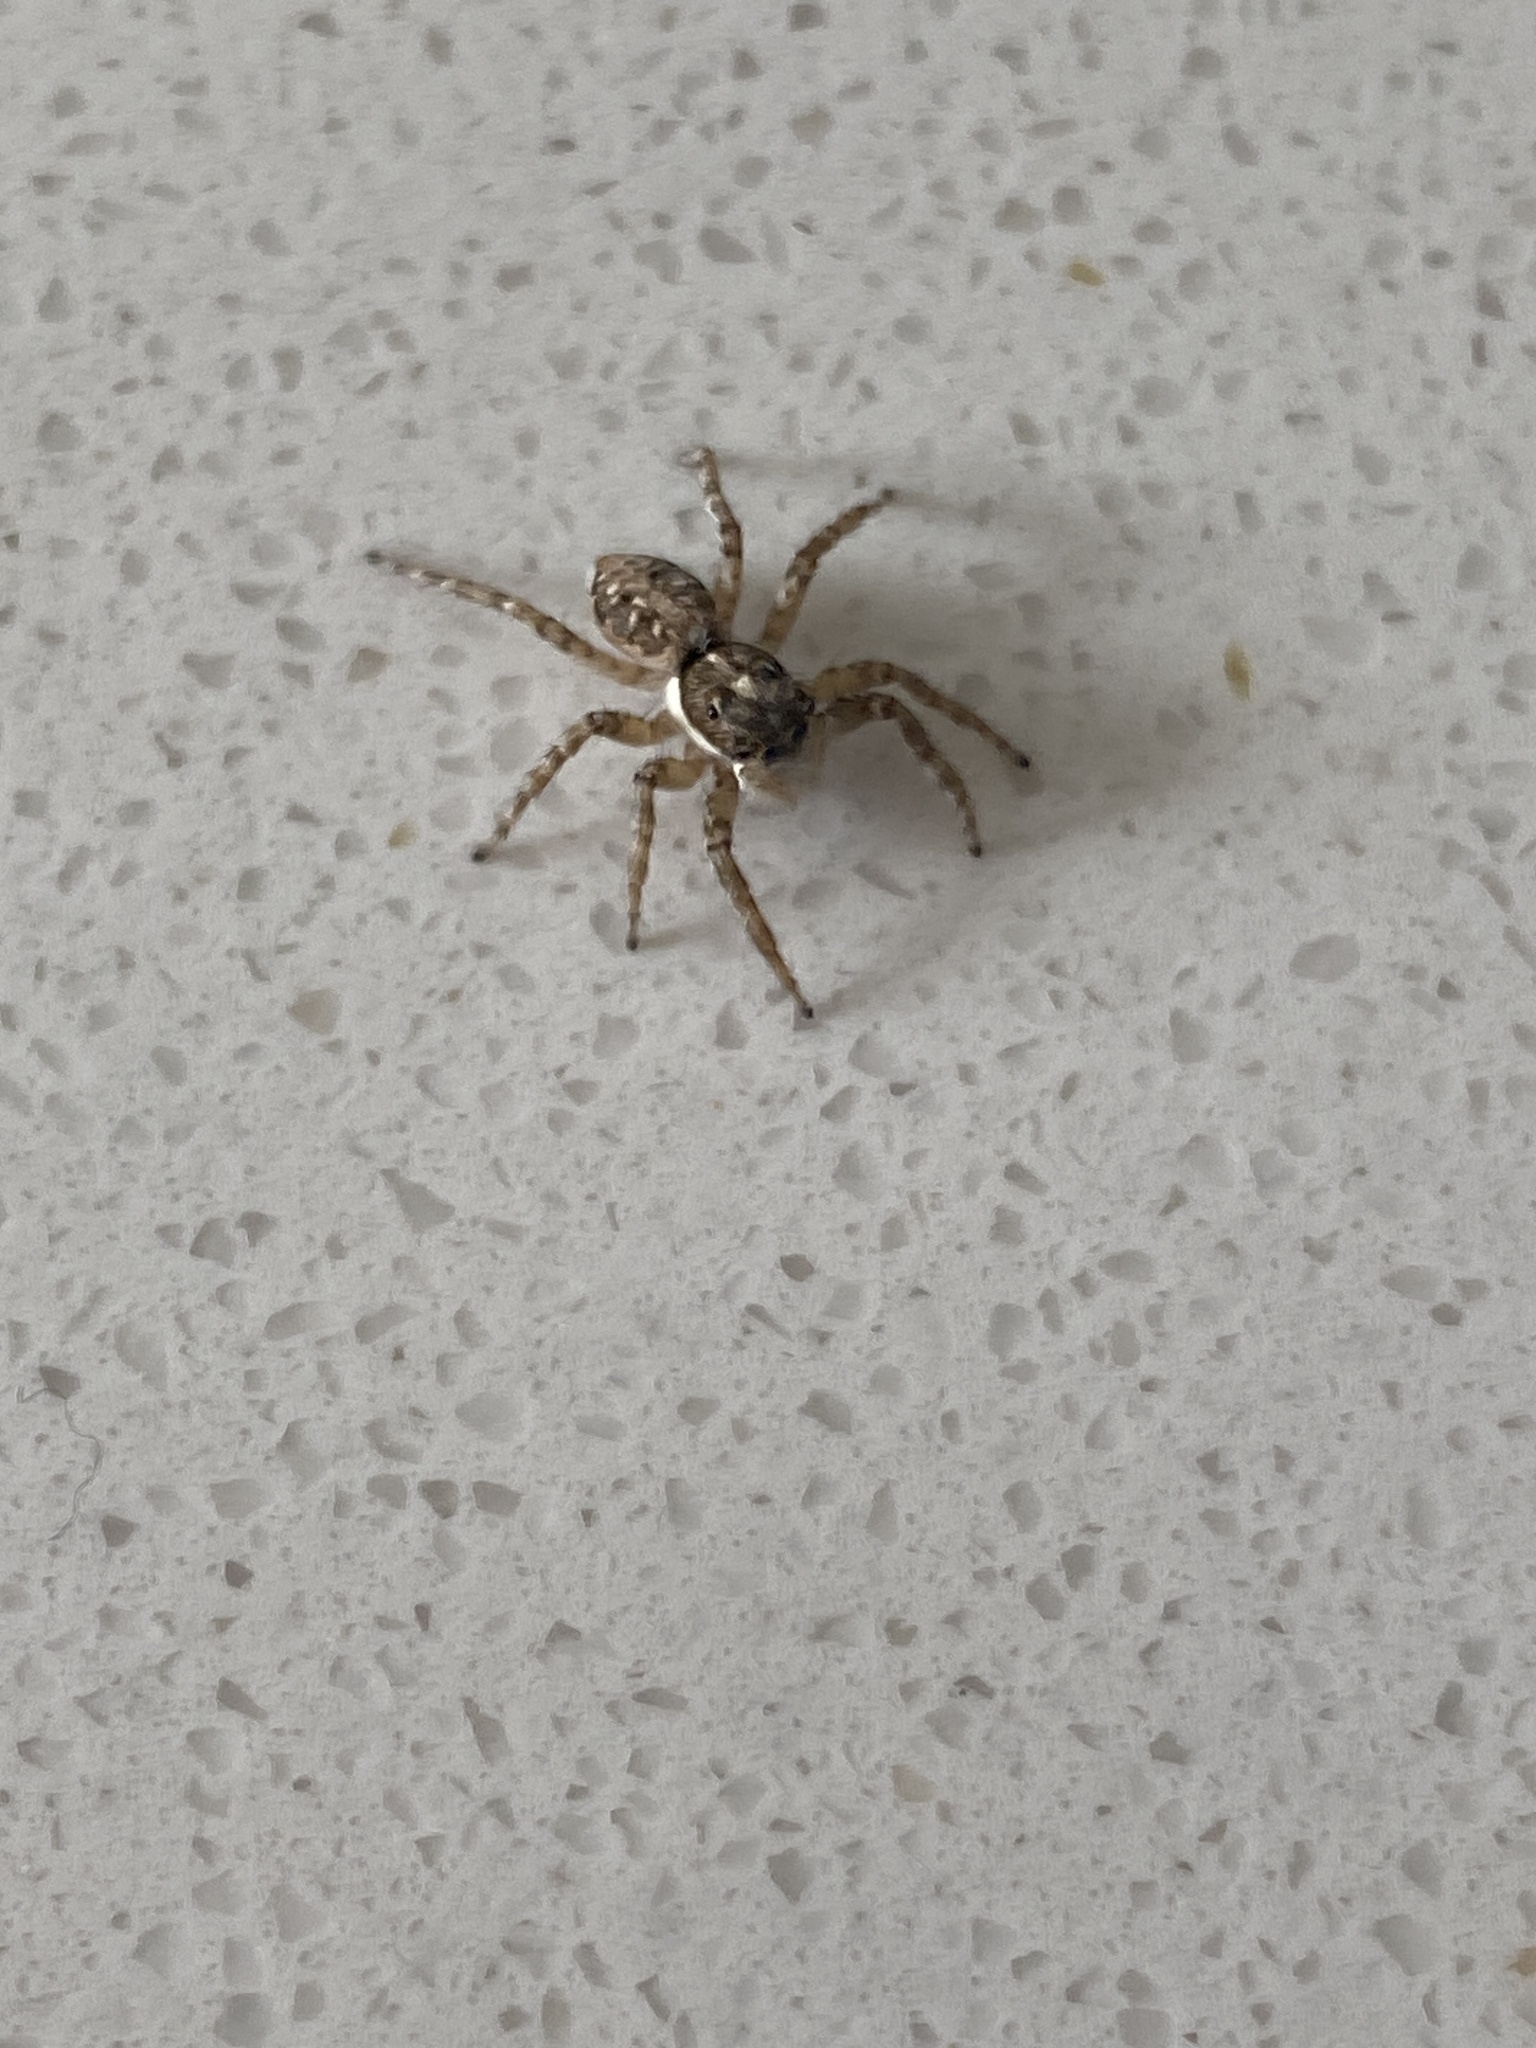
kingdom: Animalia
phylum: Arthropoda
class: Arachnida
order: Araneae
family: Salticidae
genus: Menemerus
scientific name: Menemerus semilimbatus
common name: Jumping spider
